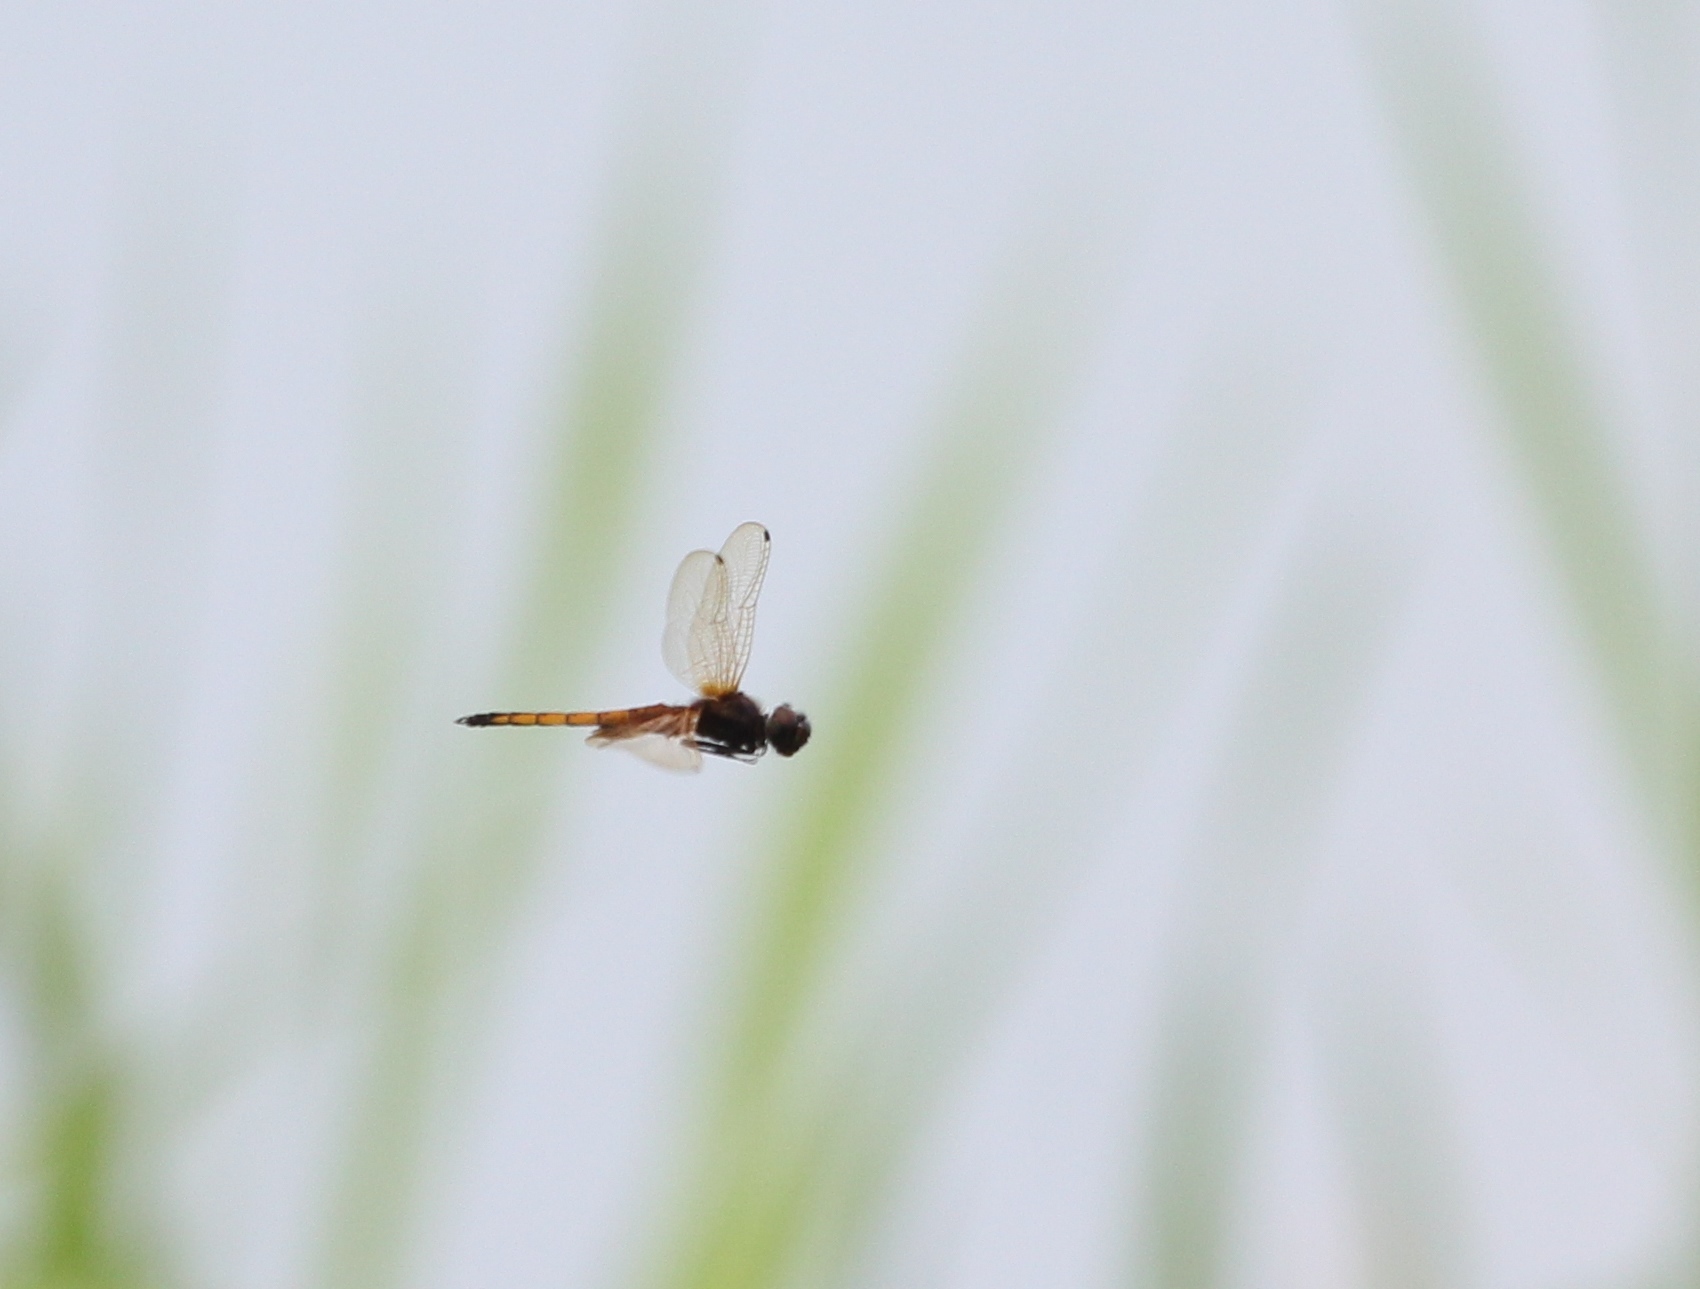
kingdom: Animalia
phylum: Arthropoda
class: Insecta
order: Odonata
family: Libellulidae
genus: Miathyria
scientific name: Miathyria marcella
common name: Hyacinth glider
